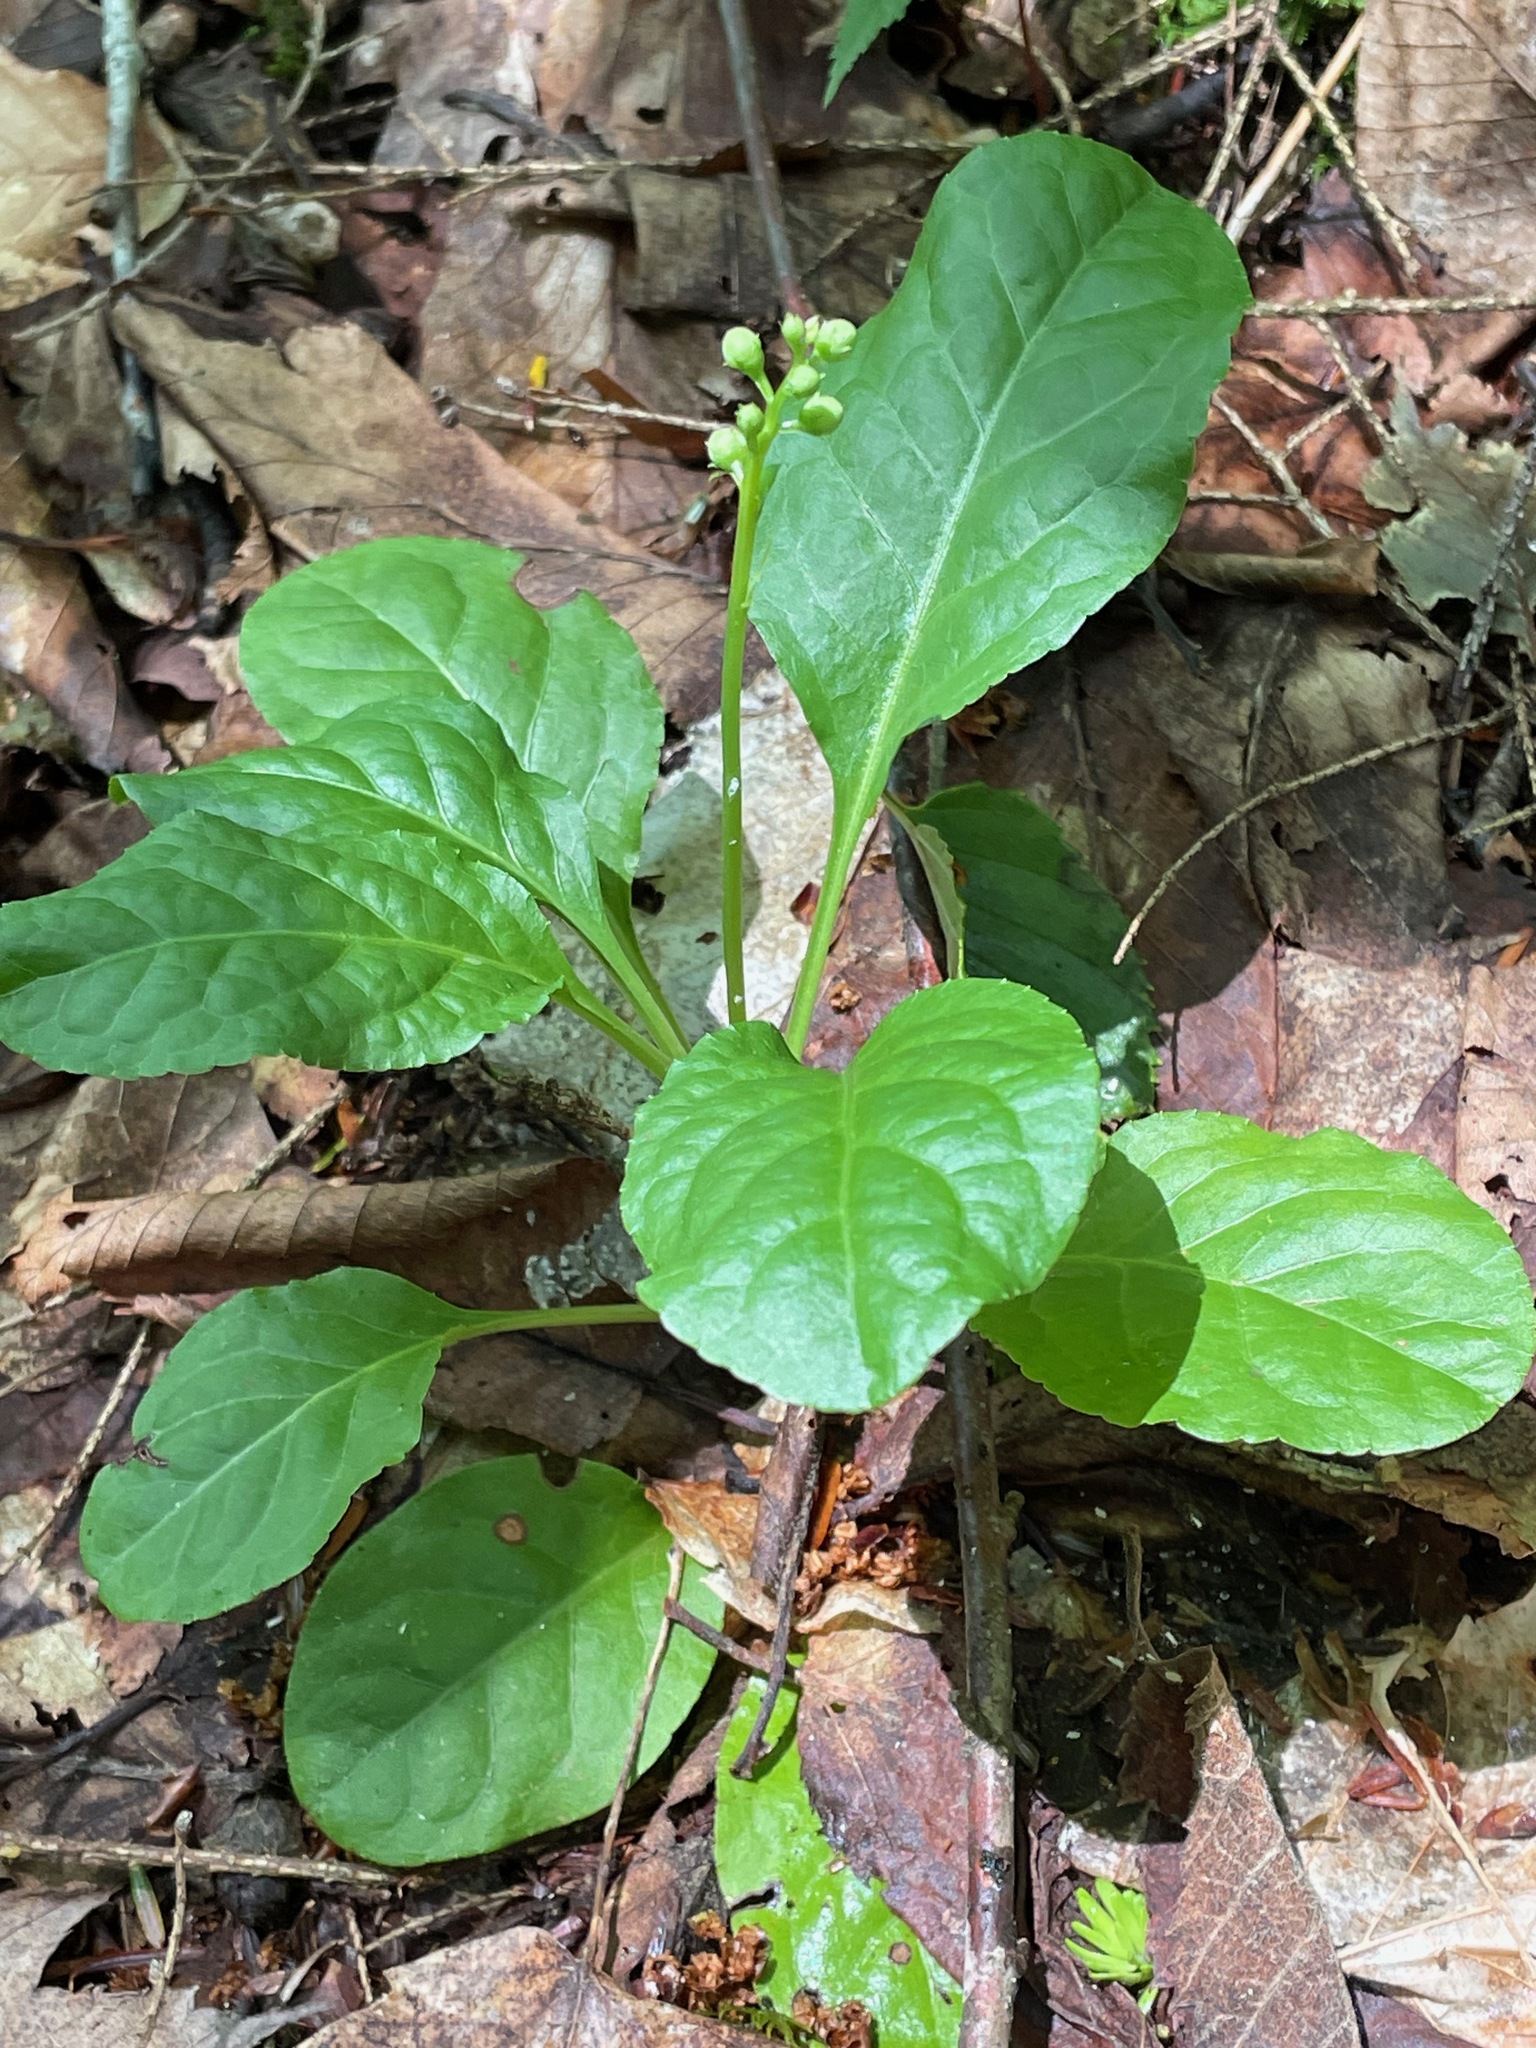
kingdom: Plantae
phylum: Tracheophyta
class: Magnoliopsida
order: Ericales
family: Ericaceae
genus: Pyrola
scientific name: Pyrola elliptica
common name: Shinleaf
